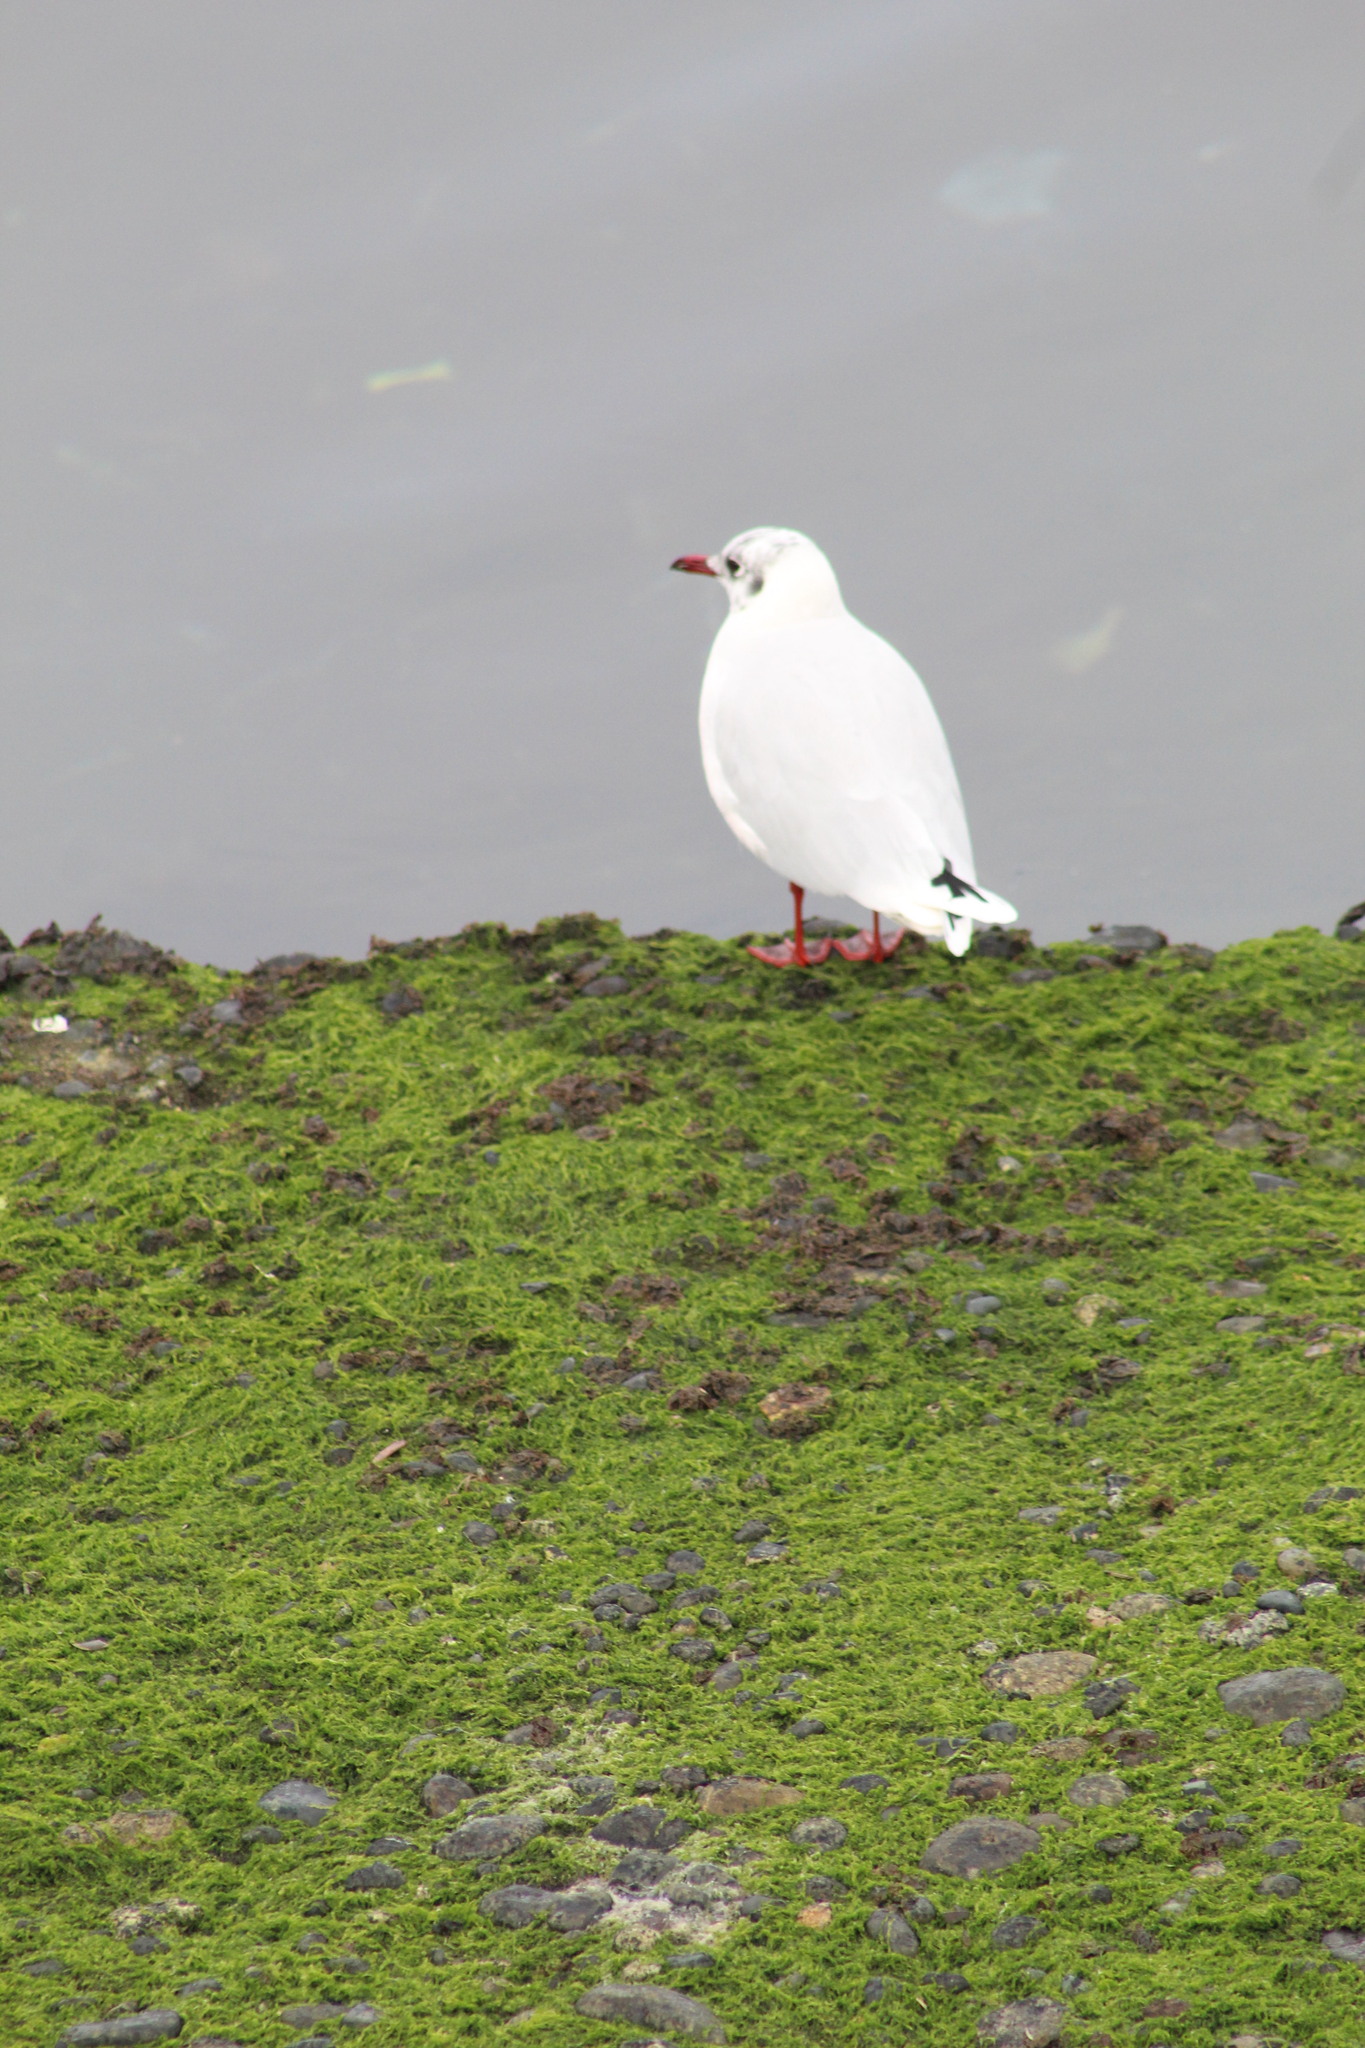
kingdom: Animalia
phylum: Chordata
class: Aves
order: Charadriiformes
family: Laridae
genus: Chroicocephalus
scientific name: Chroicocephalus maculipennis
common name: Brown-hooded gull
